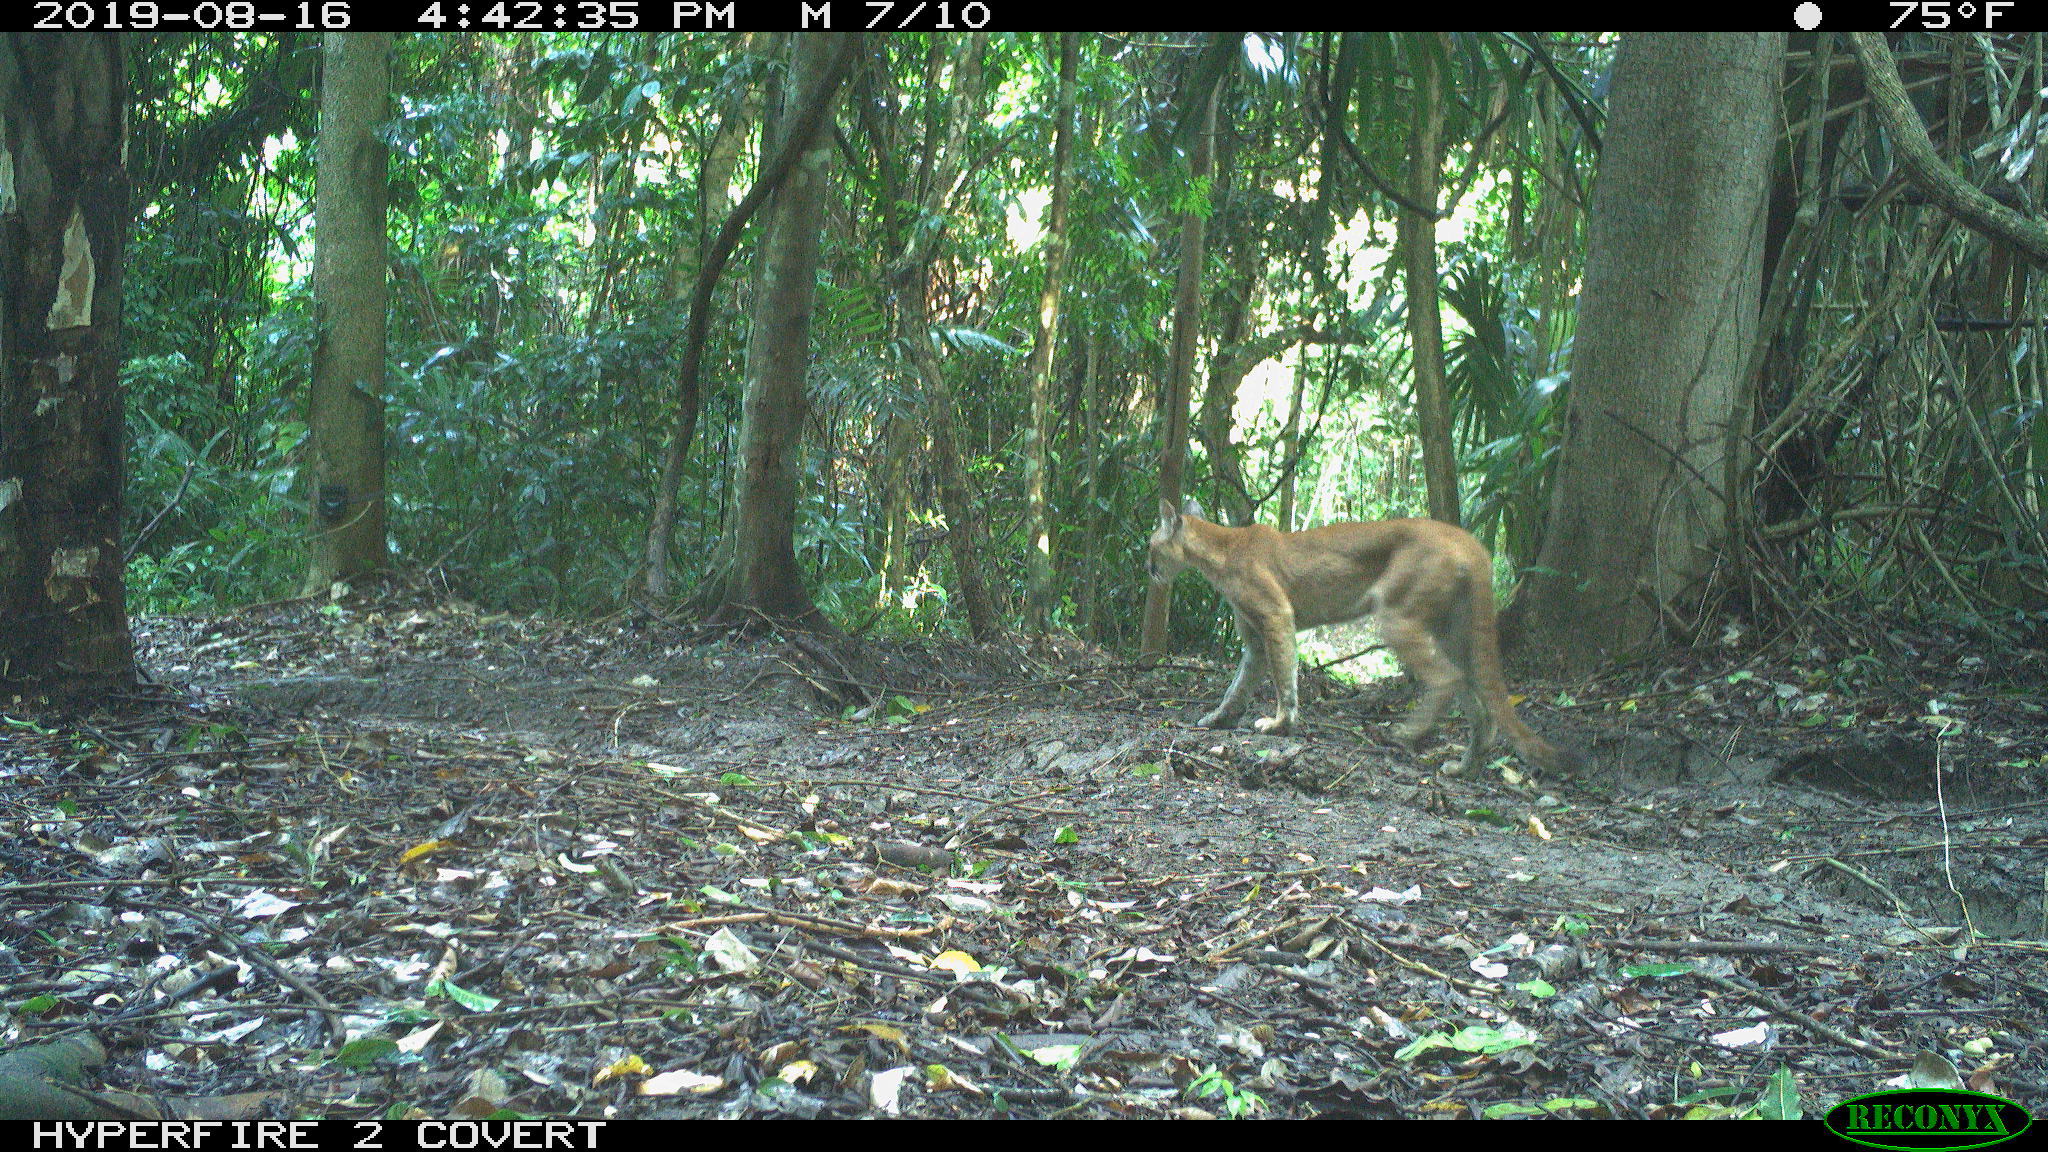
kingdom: Animalia
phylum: Chordata
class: Mammalia
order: Carnivora
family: Felidae
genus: Puma
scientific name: Puma concolor
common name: Puma
